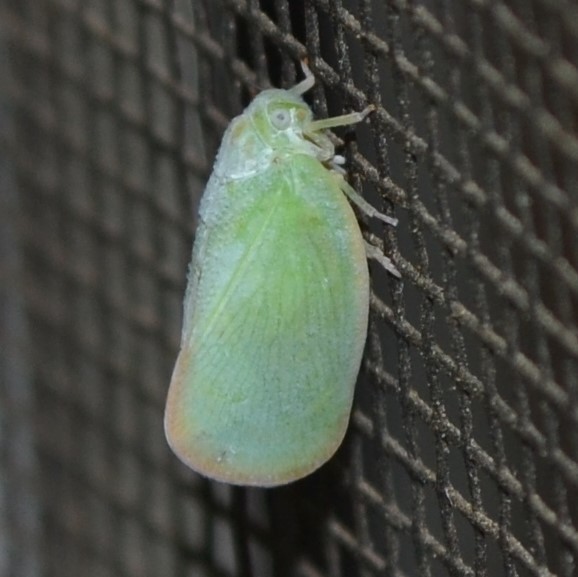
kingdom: Animalia
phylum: Arthropoda
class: Insecta
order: Hemiptera
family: Flatidae
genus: Ormenoides
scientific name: Ormenoides venusta
